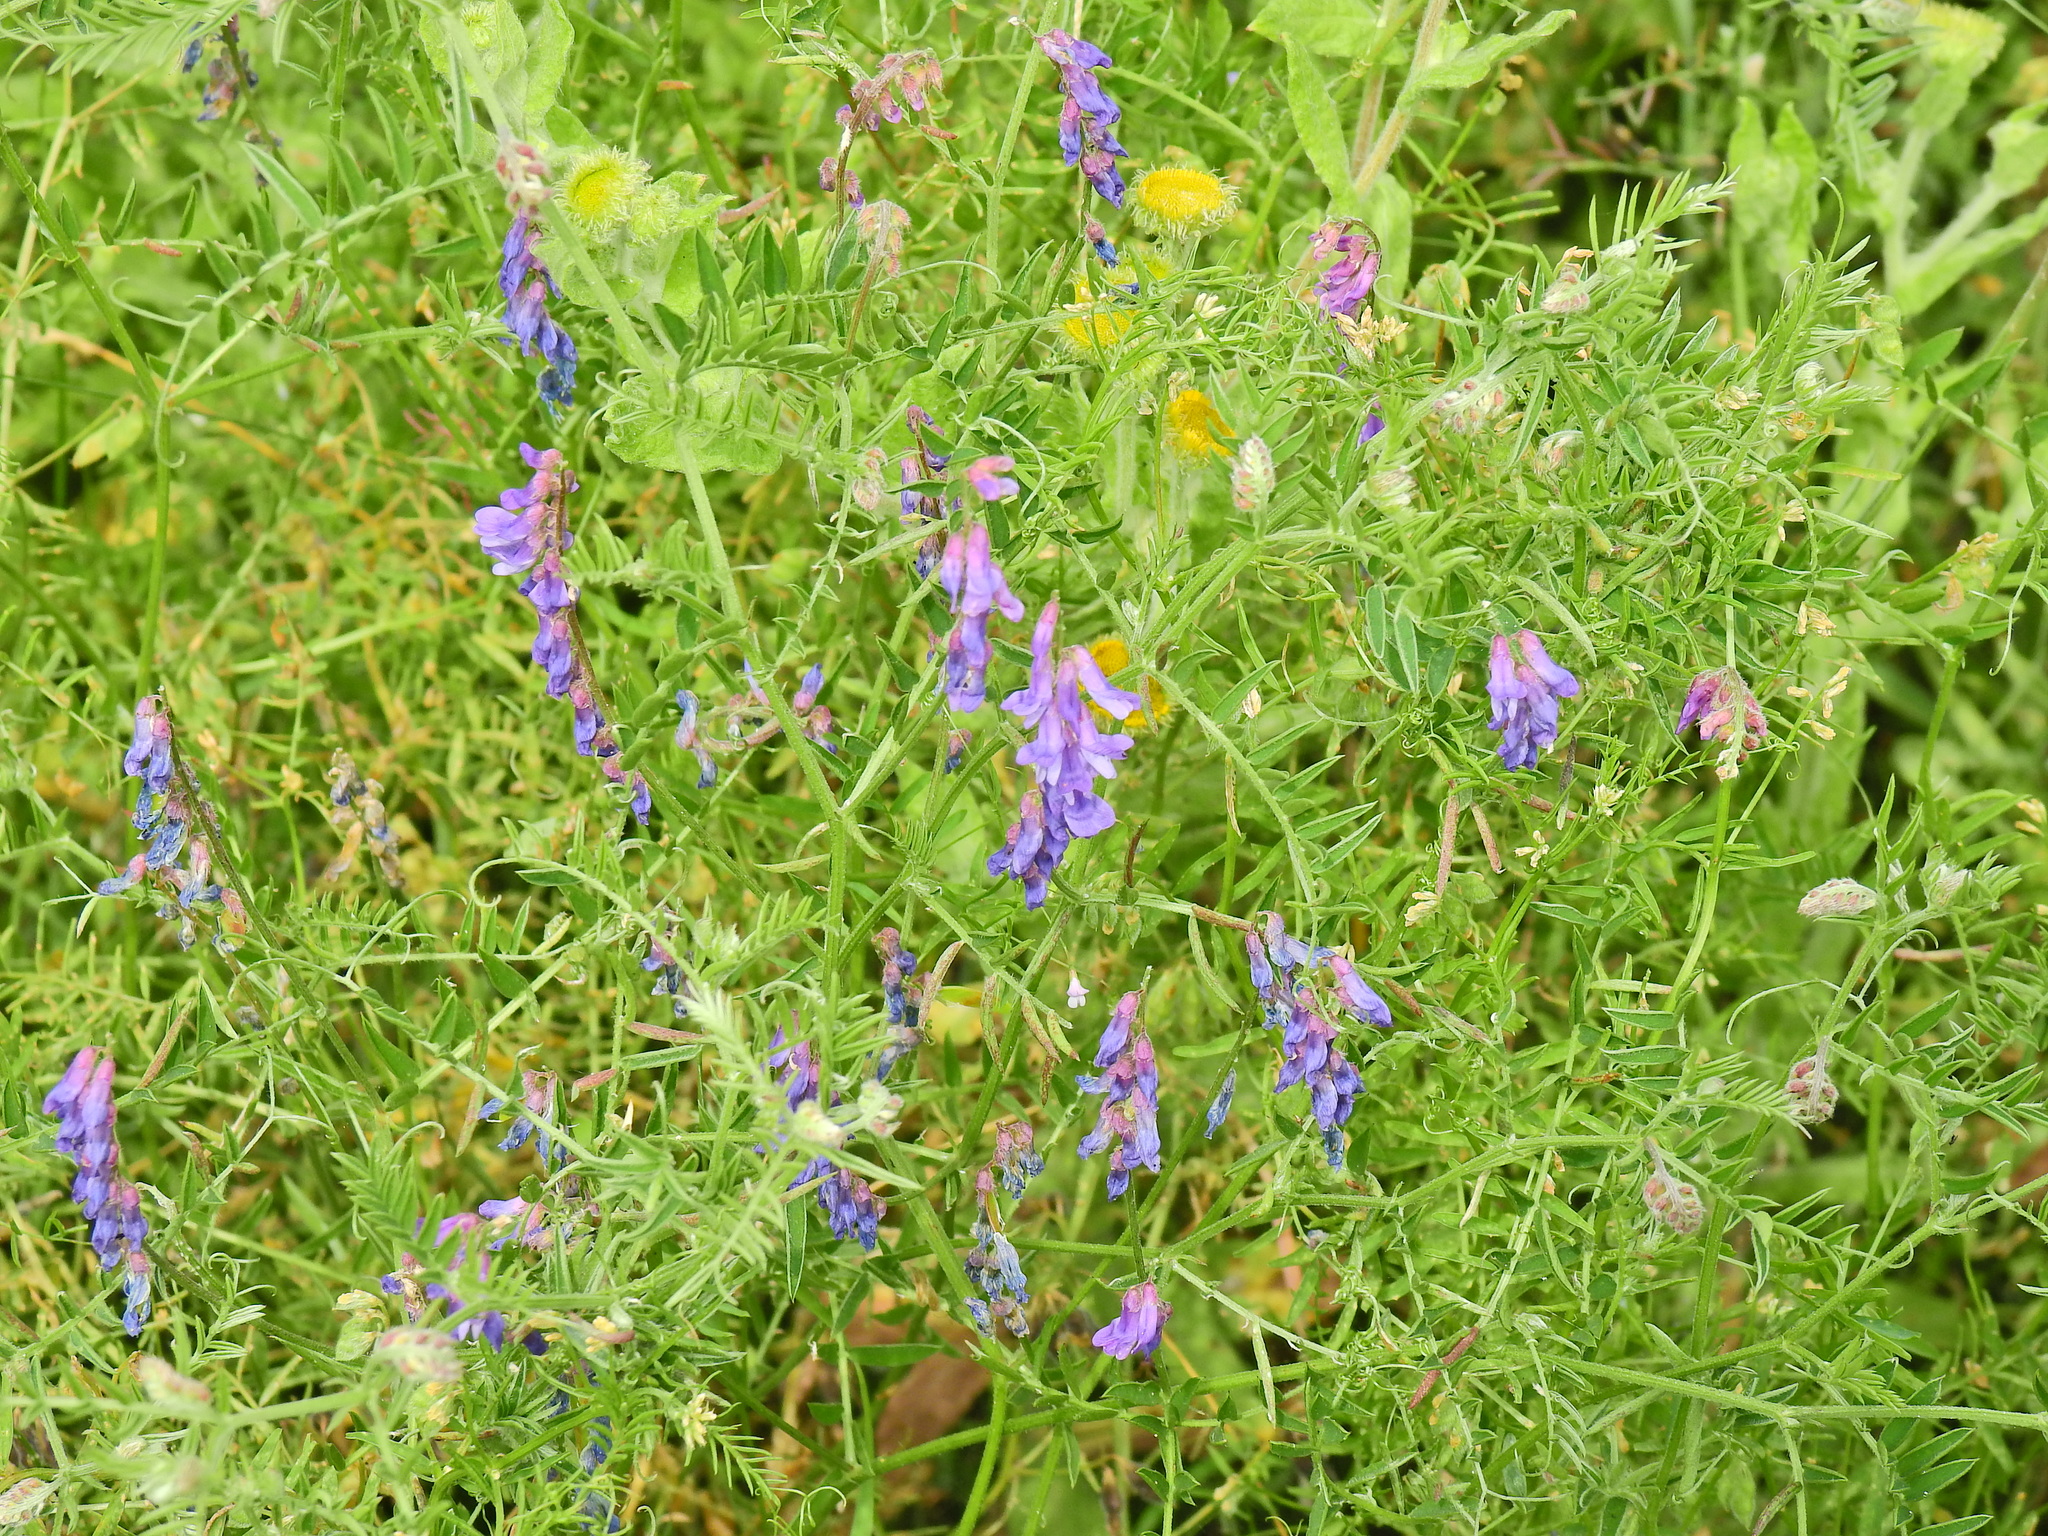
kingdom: Plantae
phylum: Tracheophyta
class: Magnoliopsida
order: Fabales
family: Fabaceae
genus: Vicia
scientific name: Vicia cracca
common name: Bird vetch
